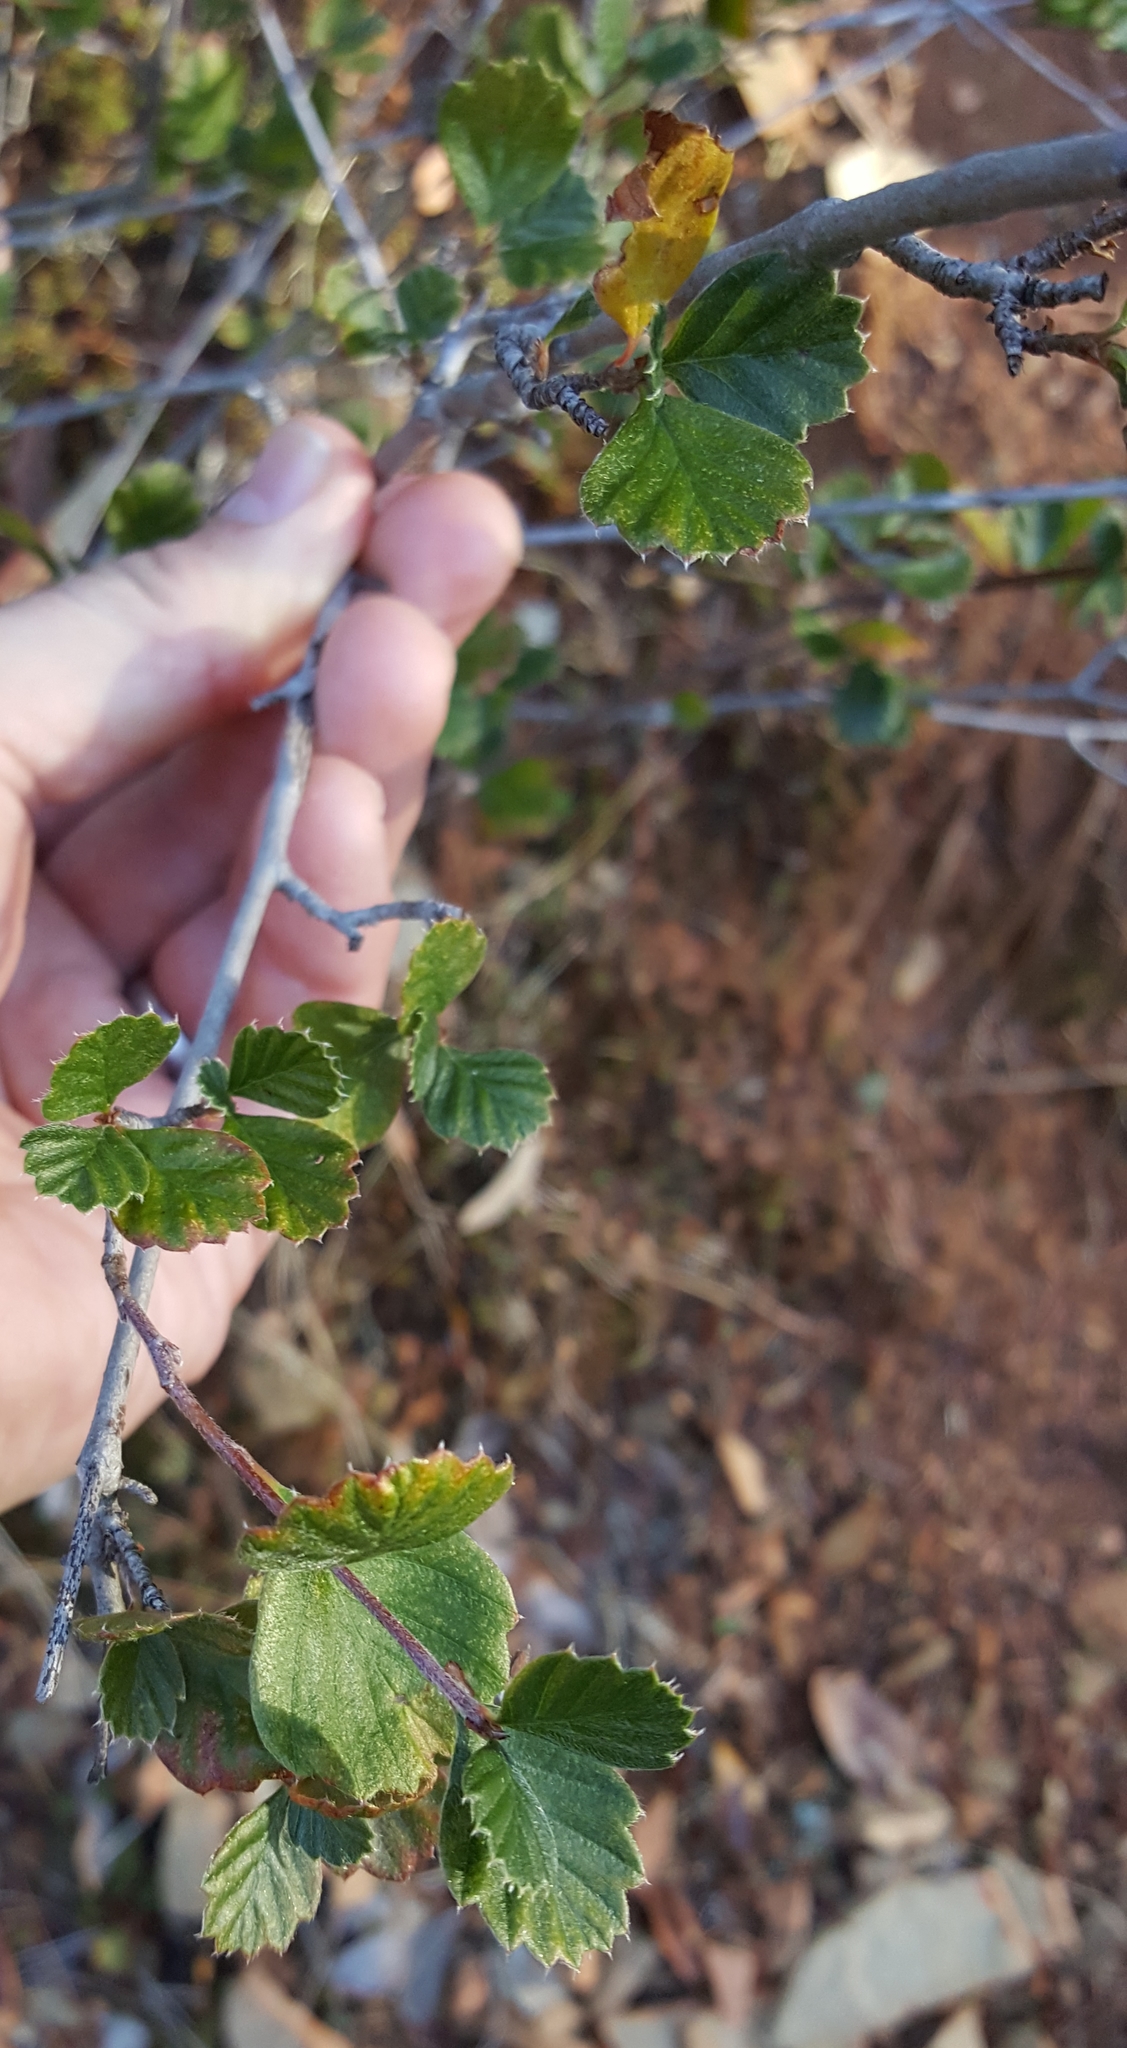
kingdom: Plantae
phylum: Tracheophyta
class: Magnoliopsida
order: Rosales
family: Rosaceae
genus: Cercocarpus
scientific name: Cercocarpus betuloides
